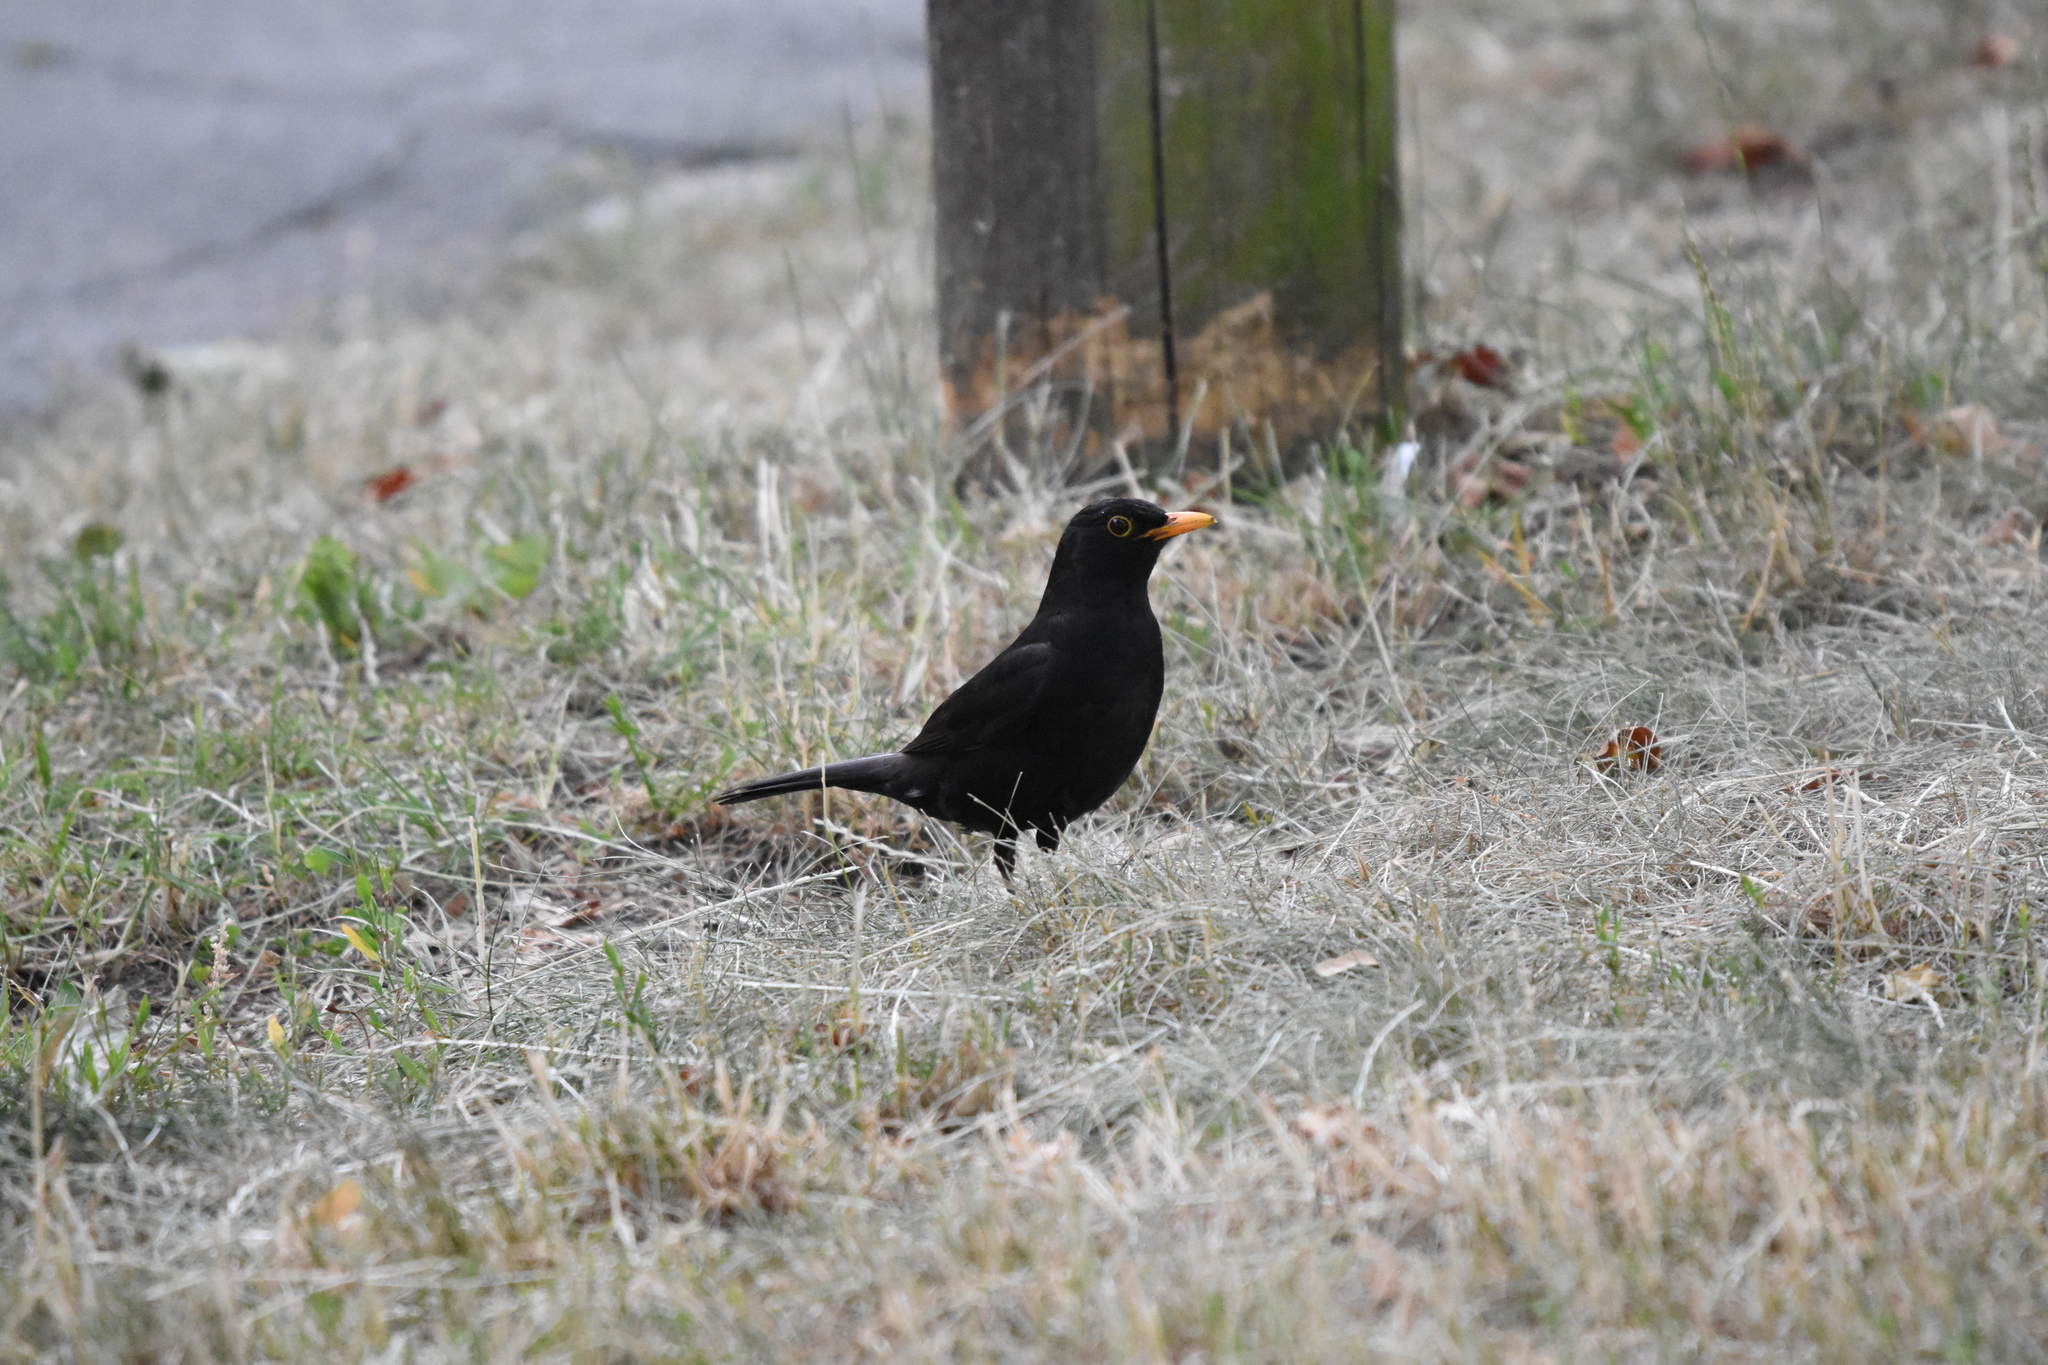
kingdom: Animalia
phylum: Chordata
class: Aves
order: Passeriformes
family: Turdidae
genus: Turdus
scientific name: Turdus merula
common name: Common blackbird
